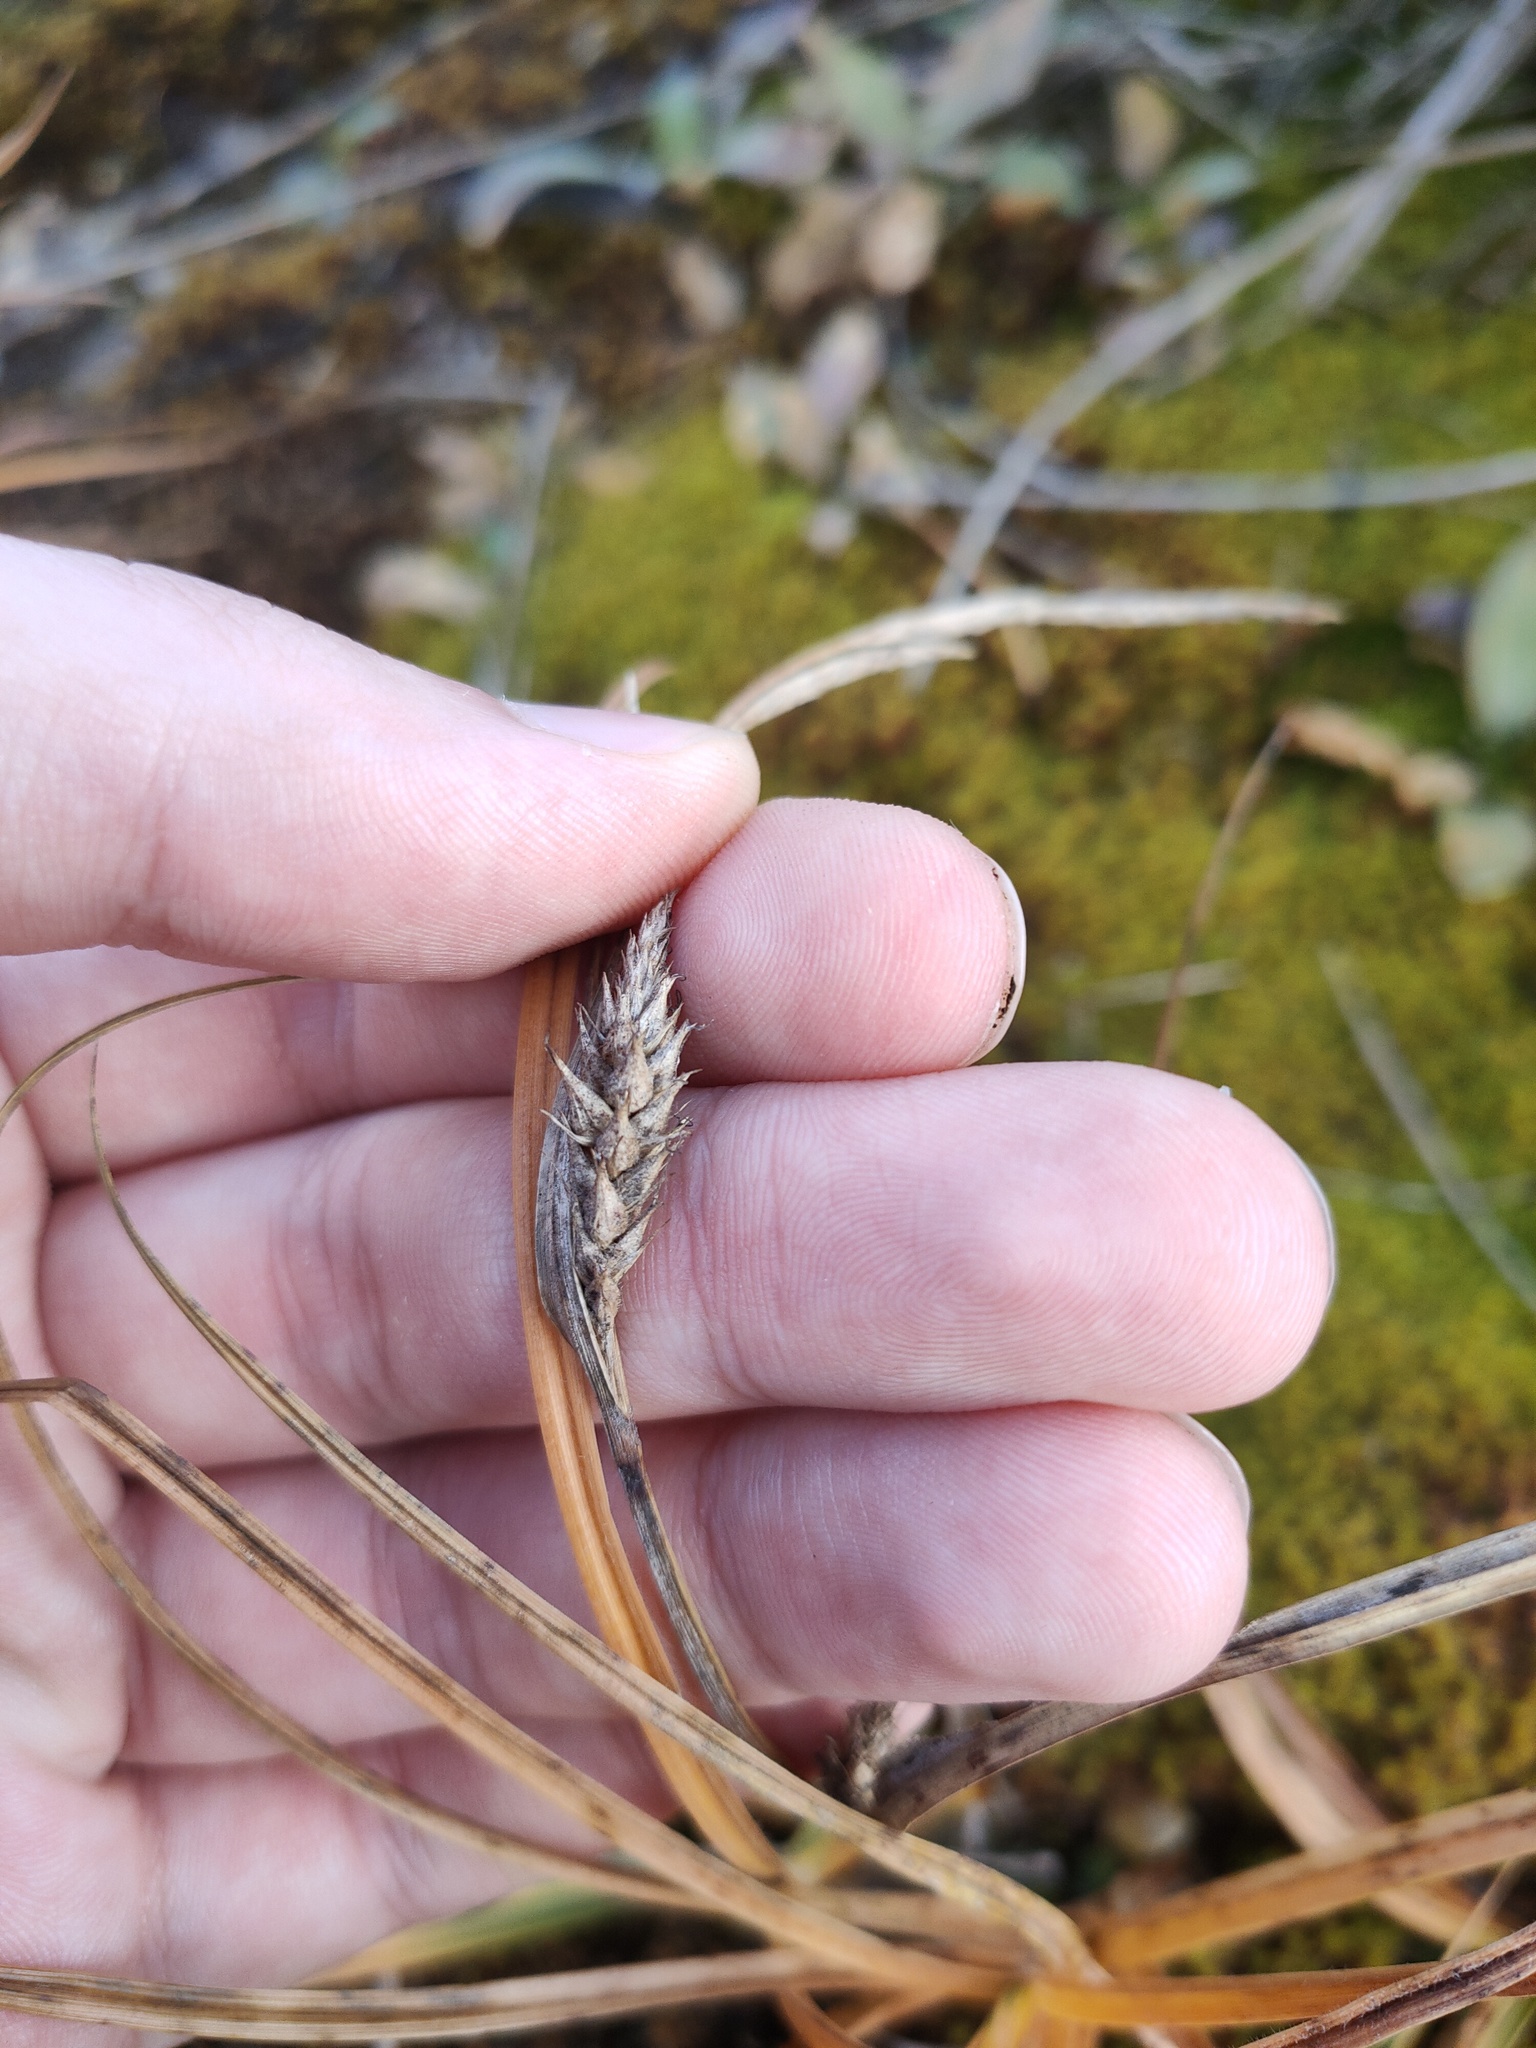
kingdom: Plantae
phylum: Tracheophyta
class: Liliopsida
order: Poales
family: Cyperaceae
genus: Carex
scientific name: Carex hirta
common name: Hairy sedge
